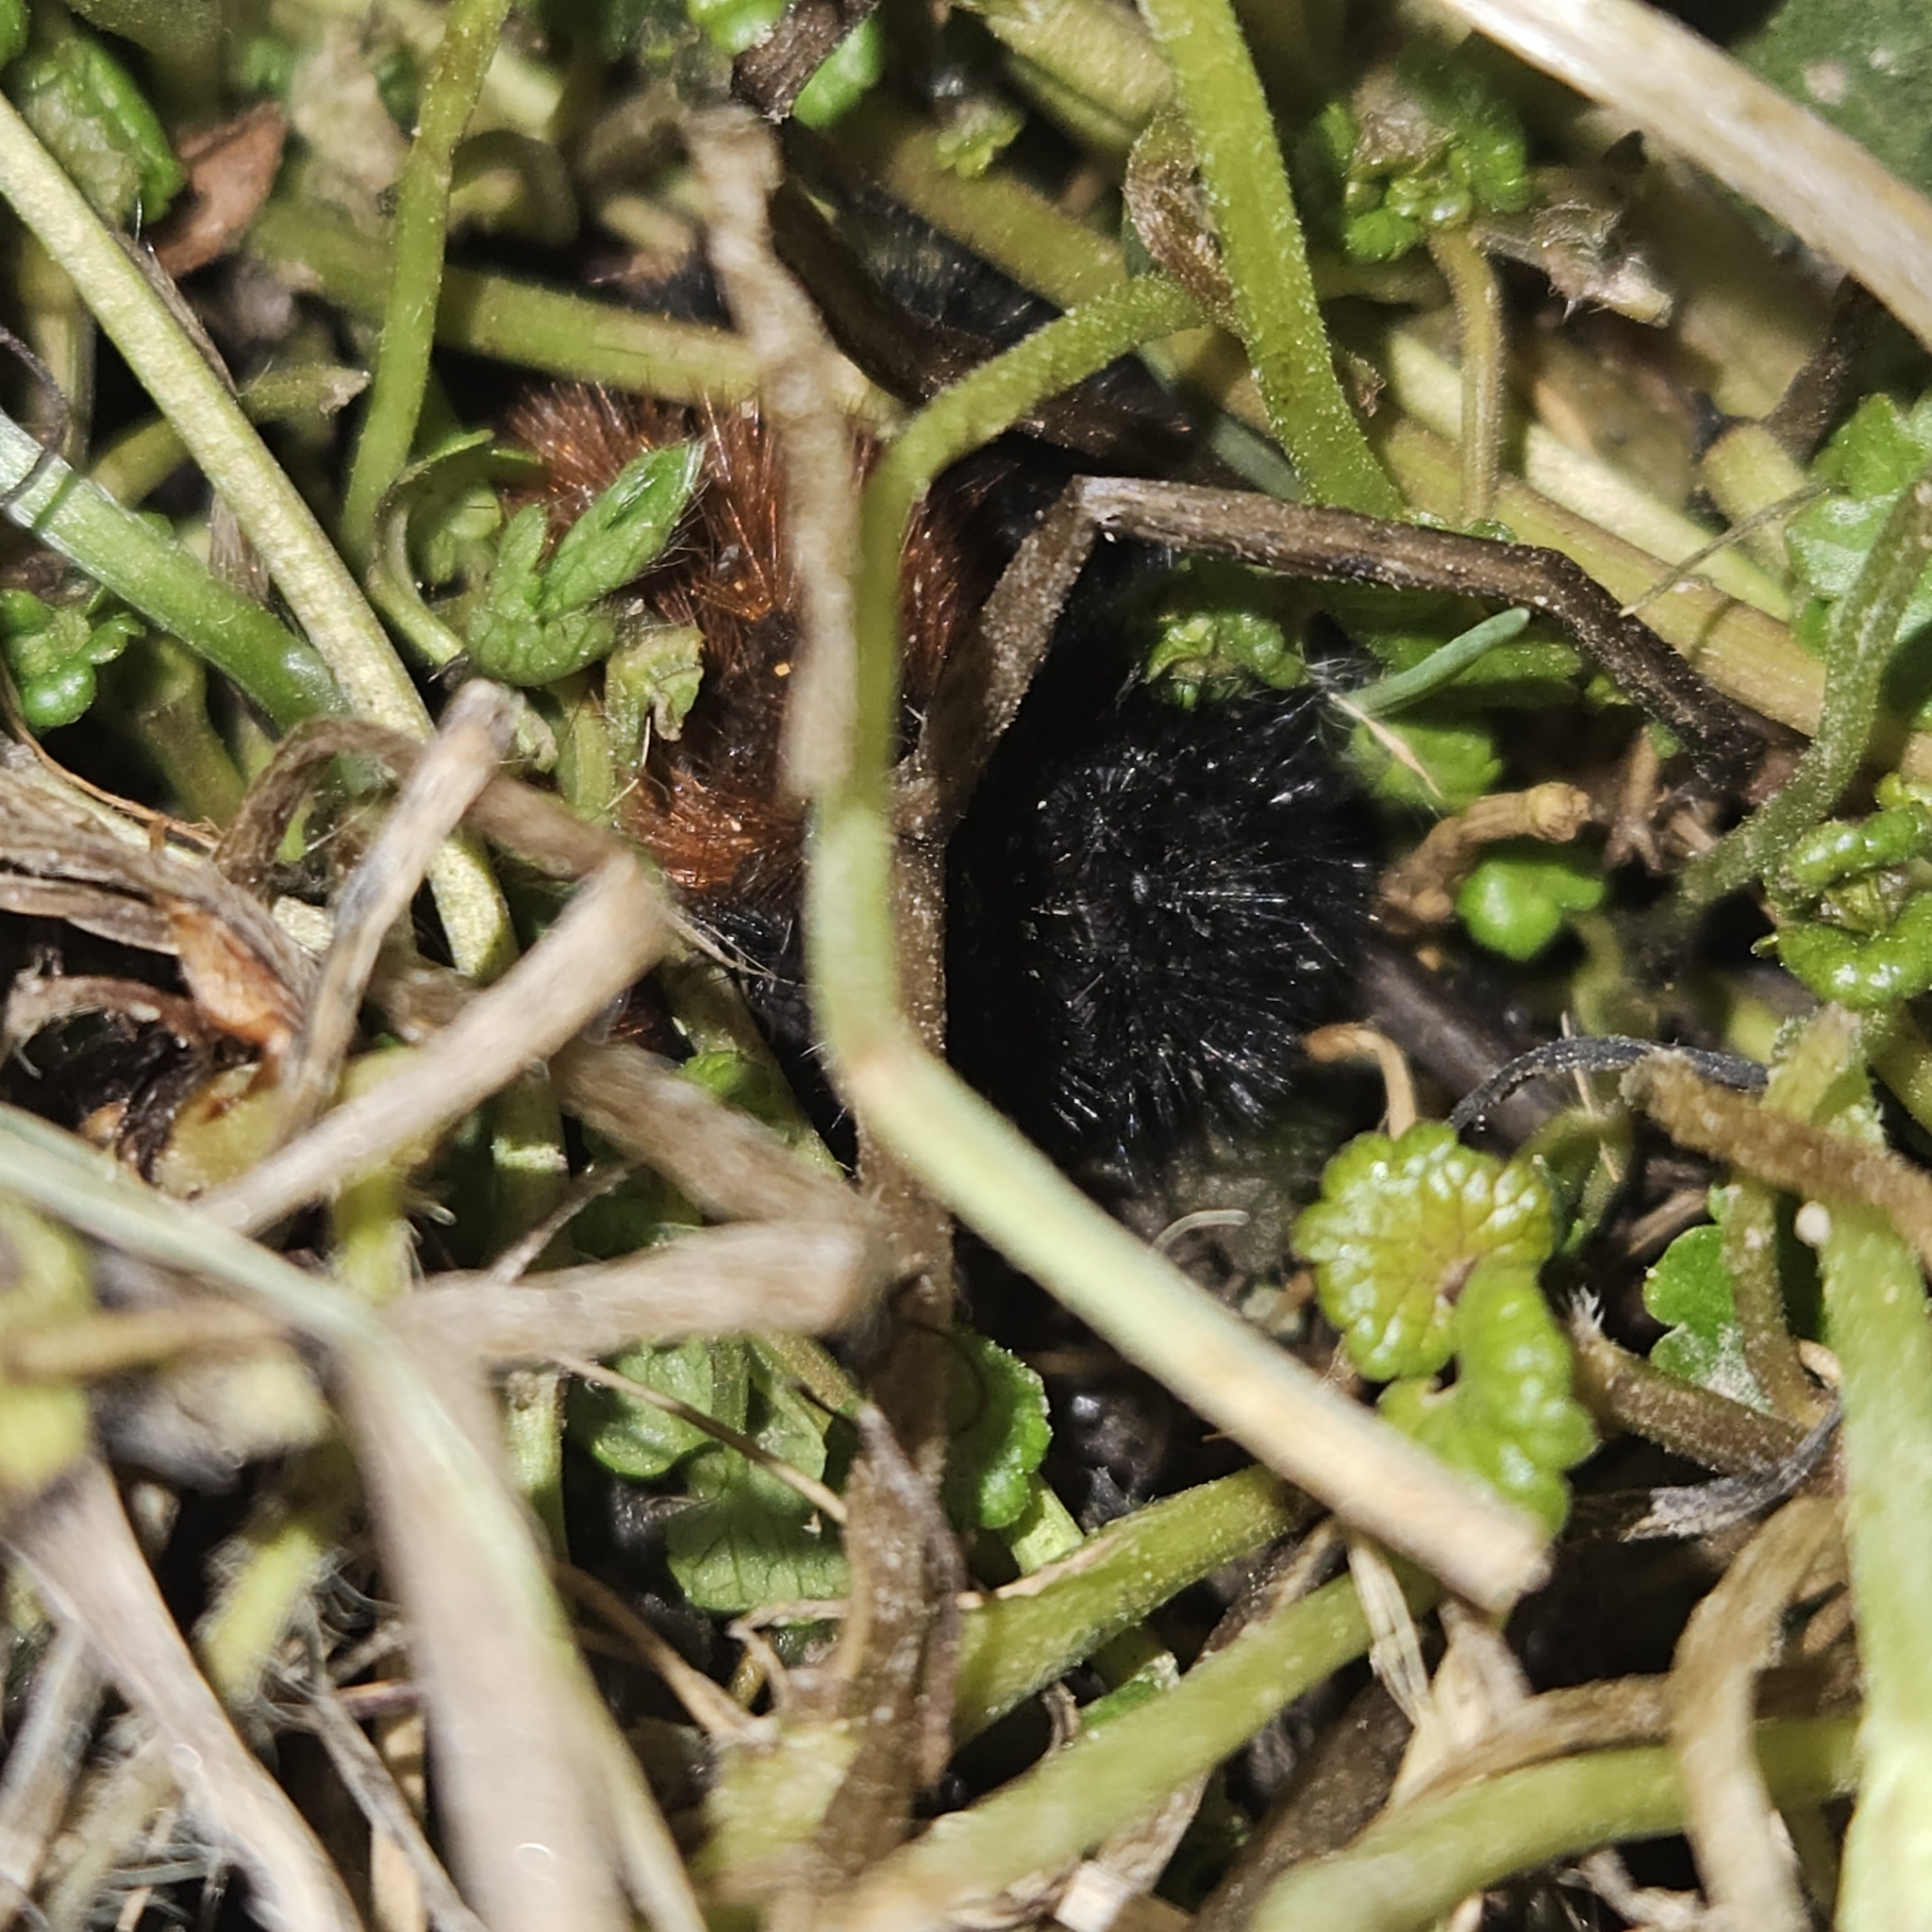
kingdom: Animalia
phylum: Arthropoda
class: Insecta
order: Lepidoptera
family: Erebidae
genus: Pyrrharctia
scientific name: Pyrrharctia isabella
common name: Isabella tiger moth
